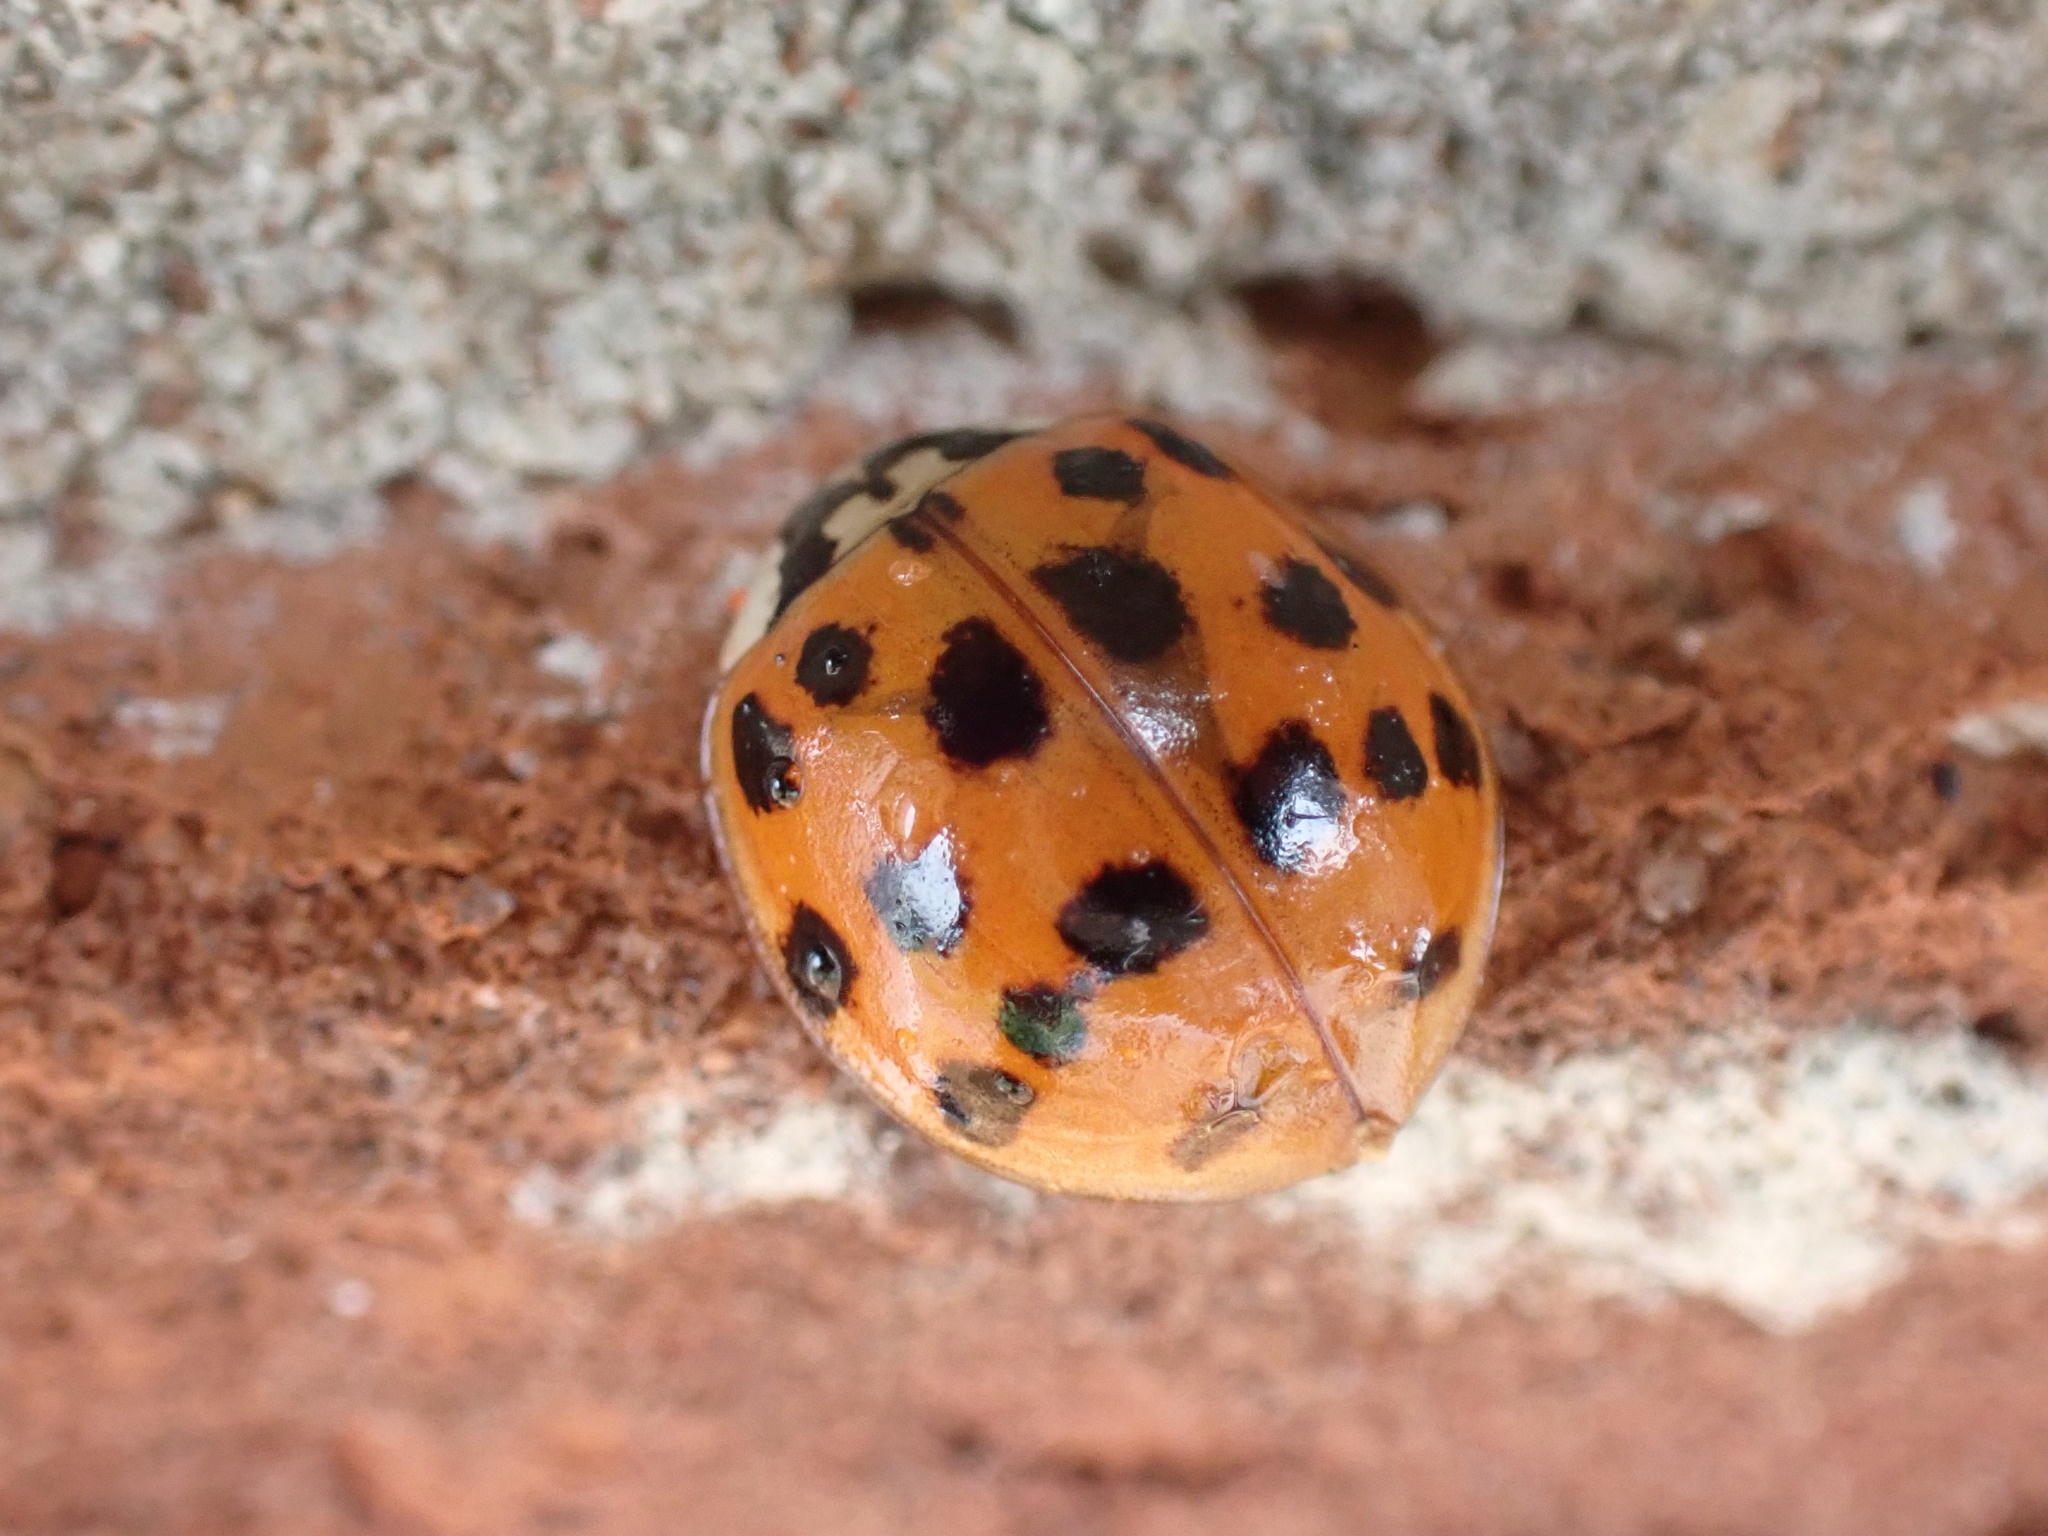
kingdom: Animalia
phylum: Arthropoda
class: Insecta
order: Coleoptera
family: Coccinellidae
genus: Harmonia
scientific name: Harmonia axyridis
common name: Harlequin ladybird
